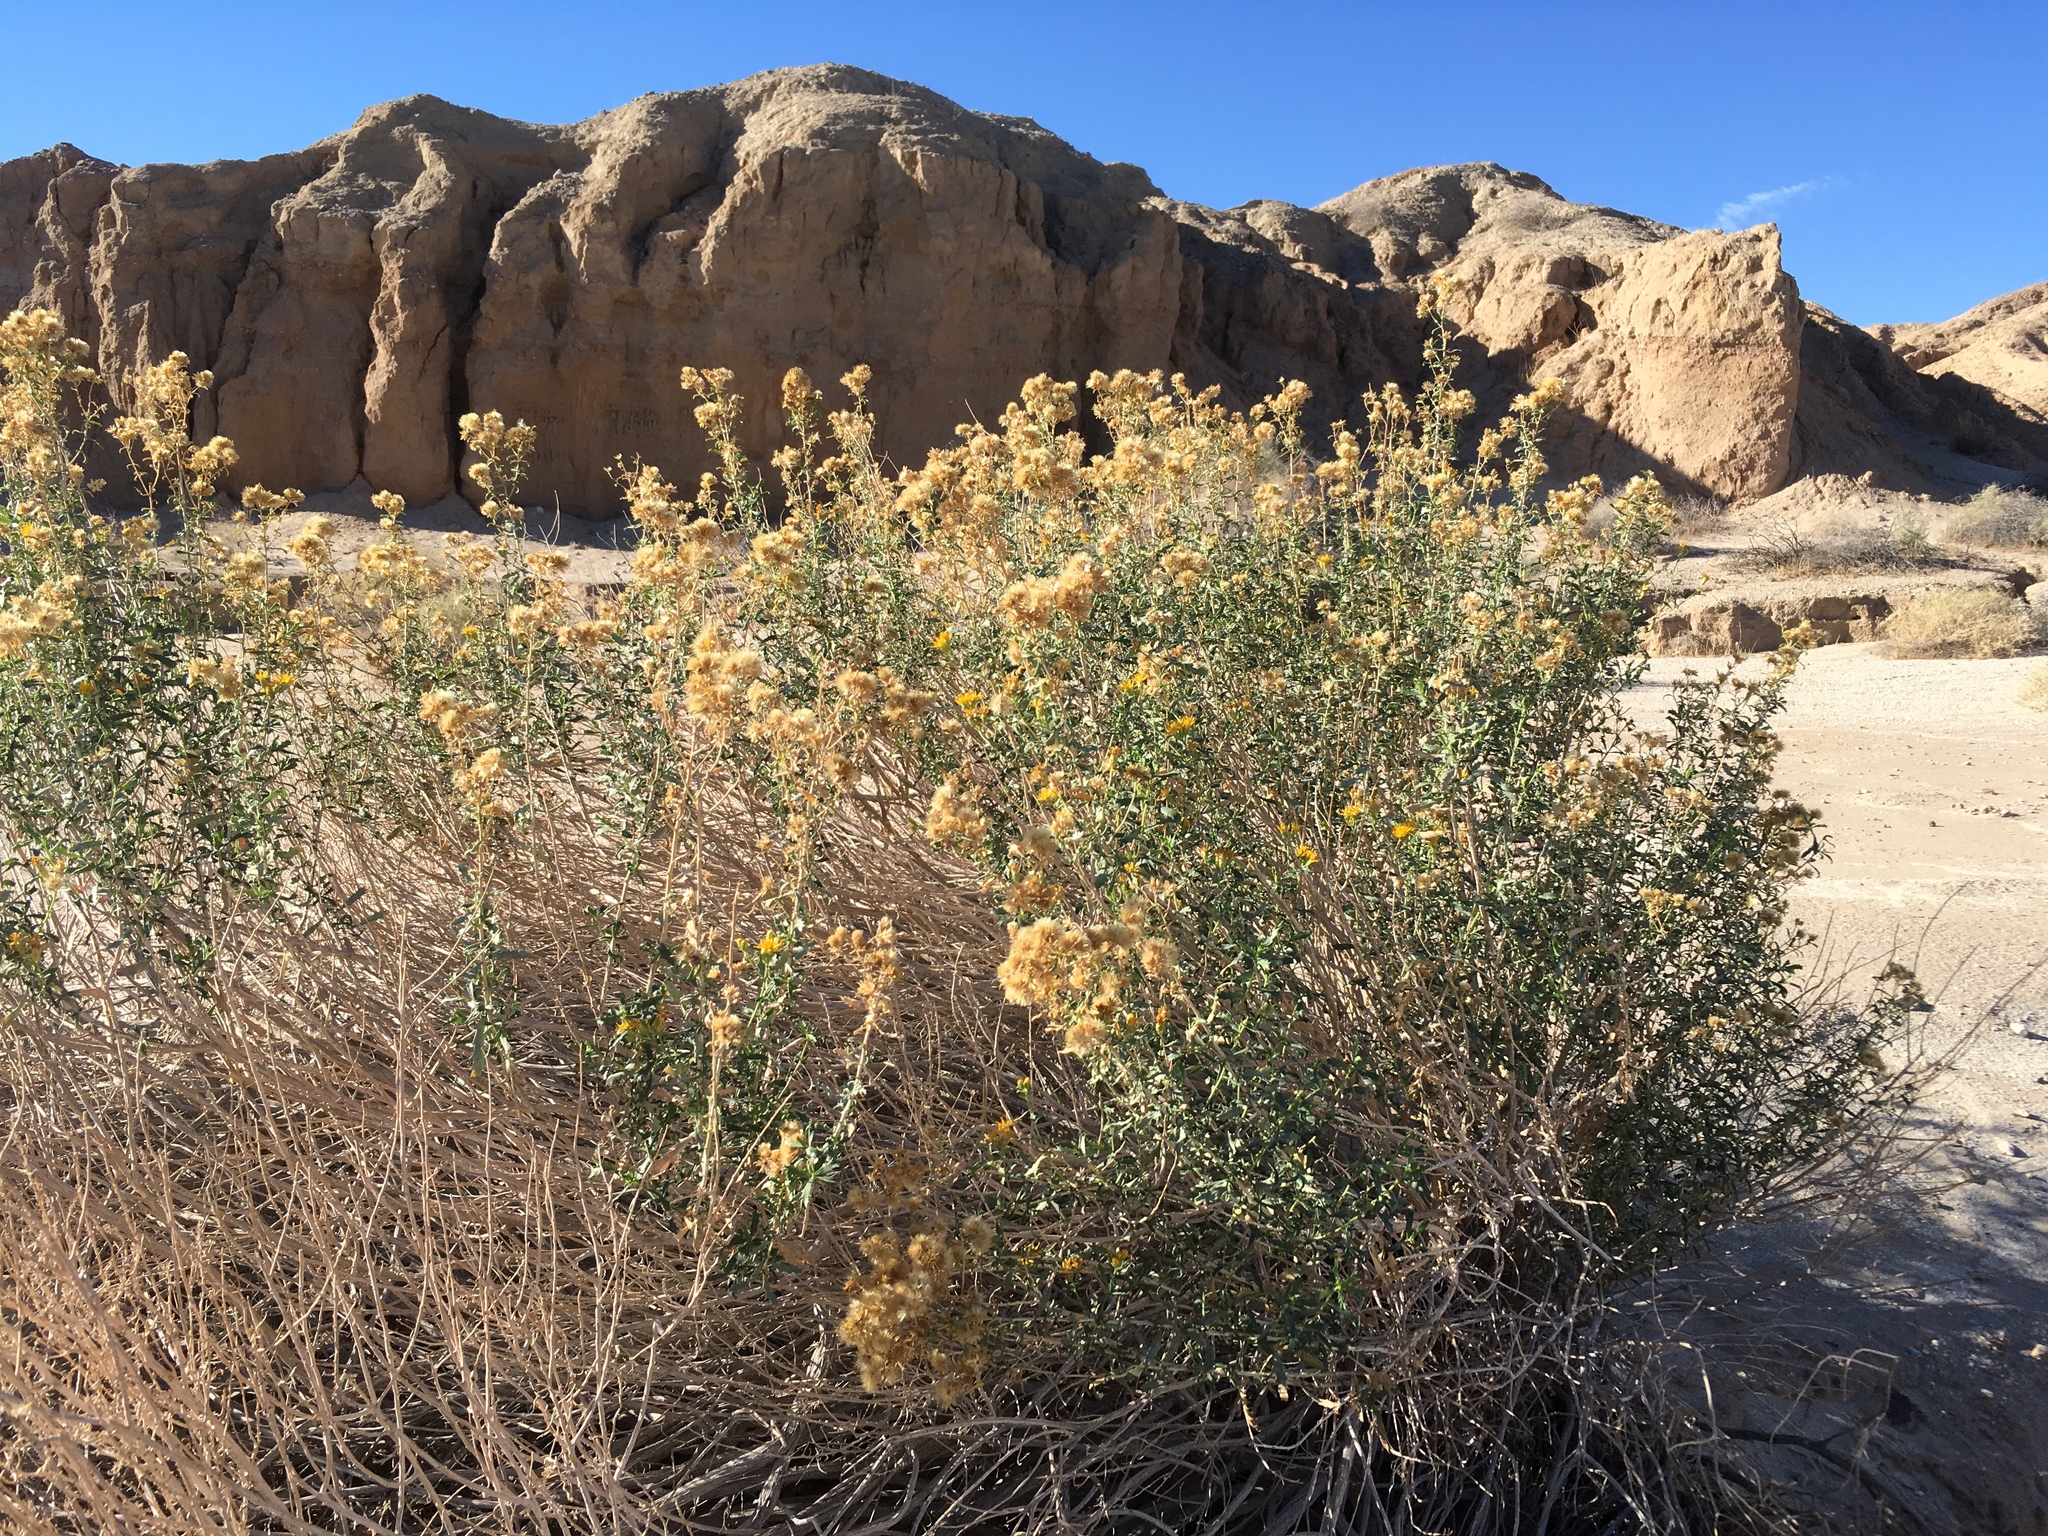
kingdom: Plantae
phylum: Tracheophyta
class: Magnoliopsida
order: Asterales
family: Asteraceae
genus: Isocoma
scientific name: Isocoma acradenia
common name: Alkali jimmyweed
